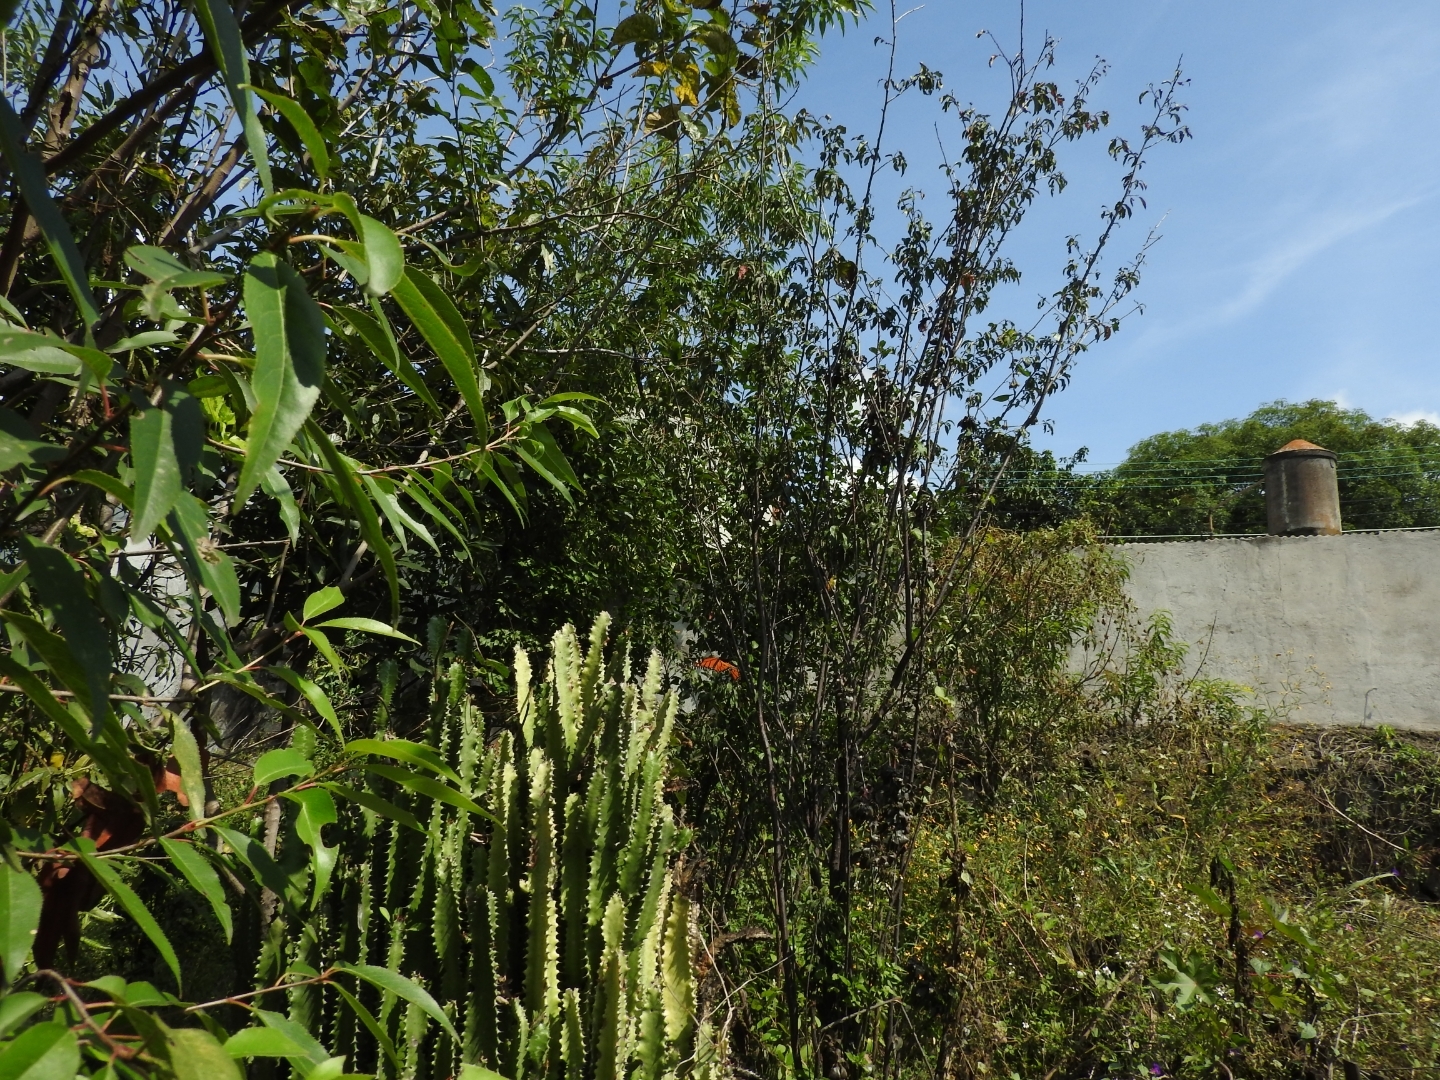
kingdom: Animalia
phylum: Arthropoda
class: Insecta
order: Lepidoptera
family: Nymphalidae
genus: Danaus
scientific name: Danaus plexippus
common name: Monarch
